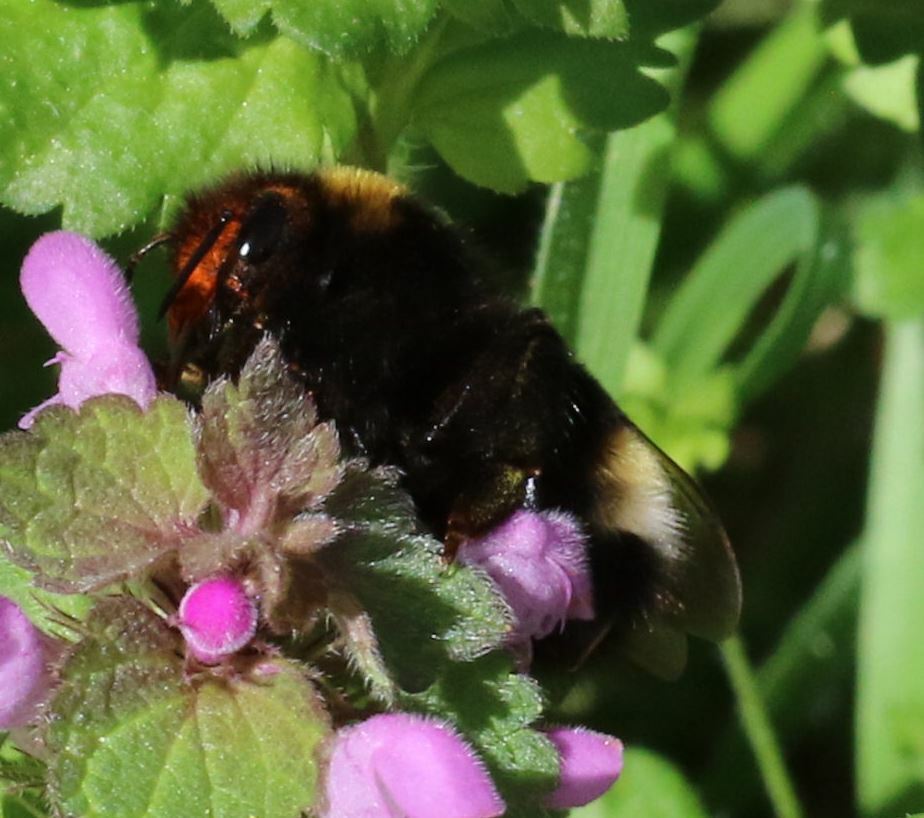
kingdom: Animalia
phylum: Arthropoda
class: Insecta
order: Hymenoptera
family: Apidae
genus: Bombus
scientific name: Bombus vestalis
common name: Vestal cuckoo bee
